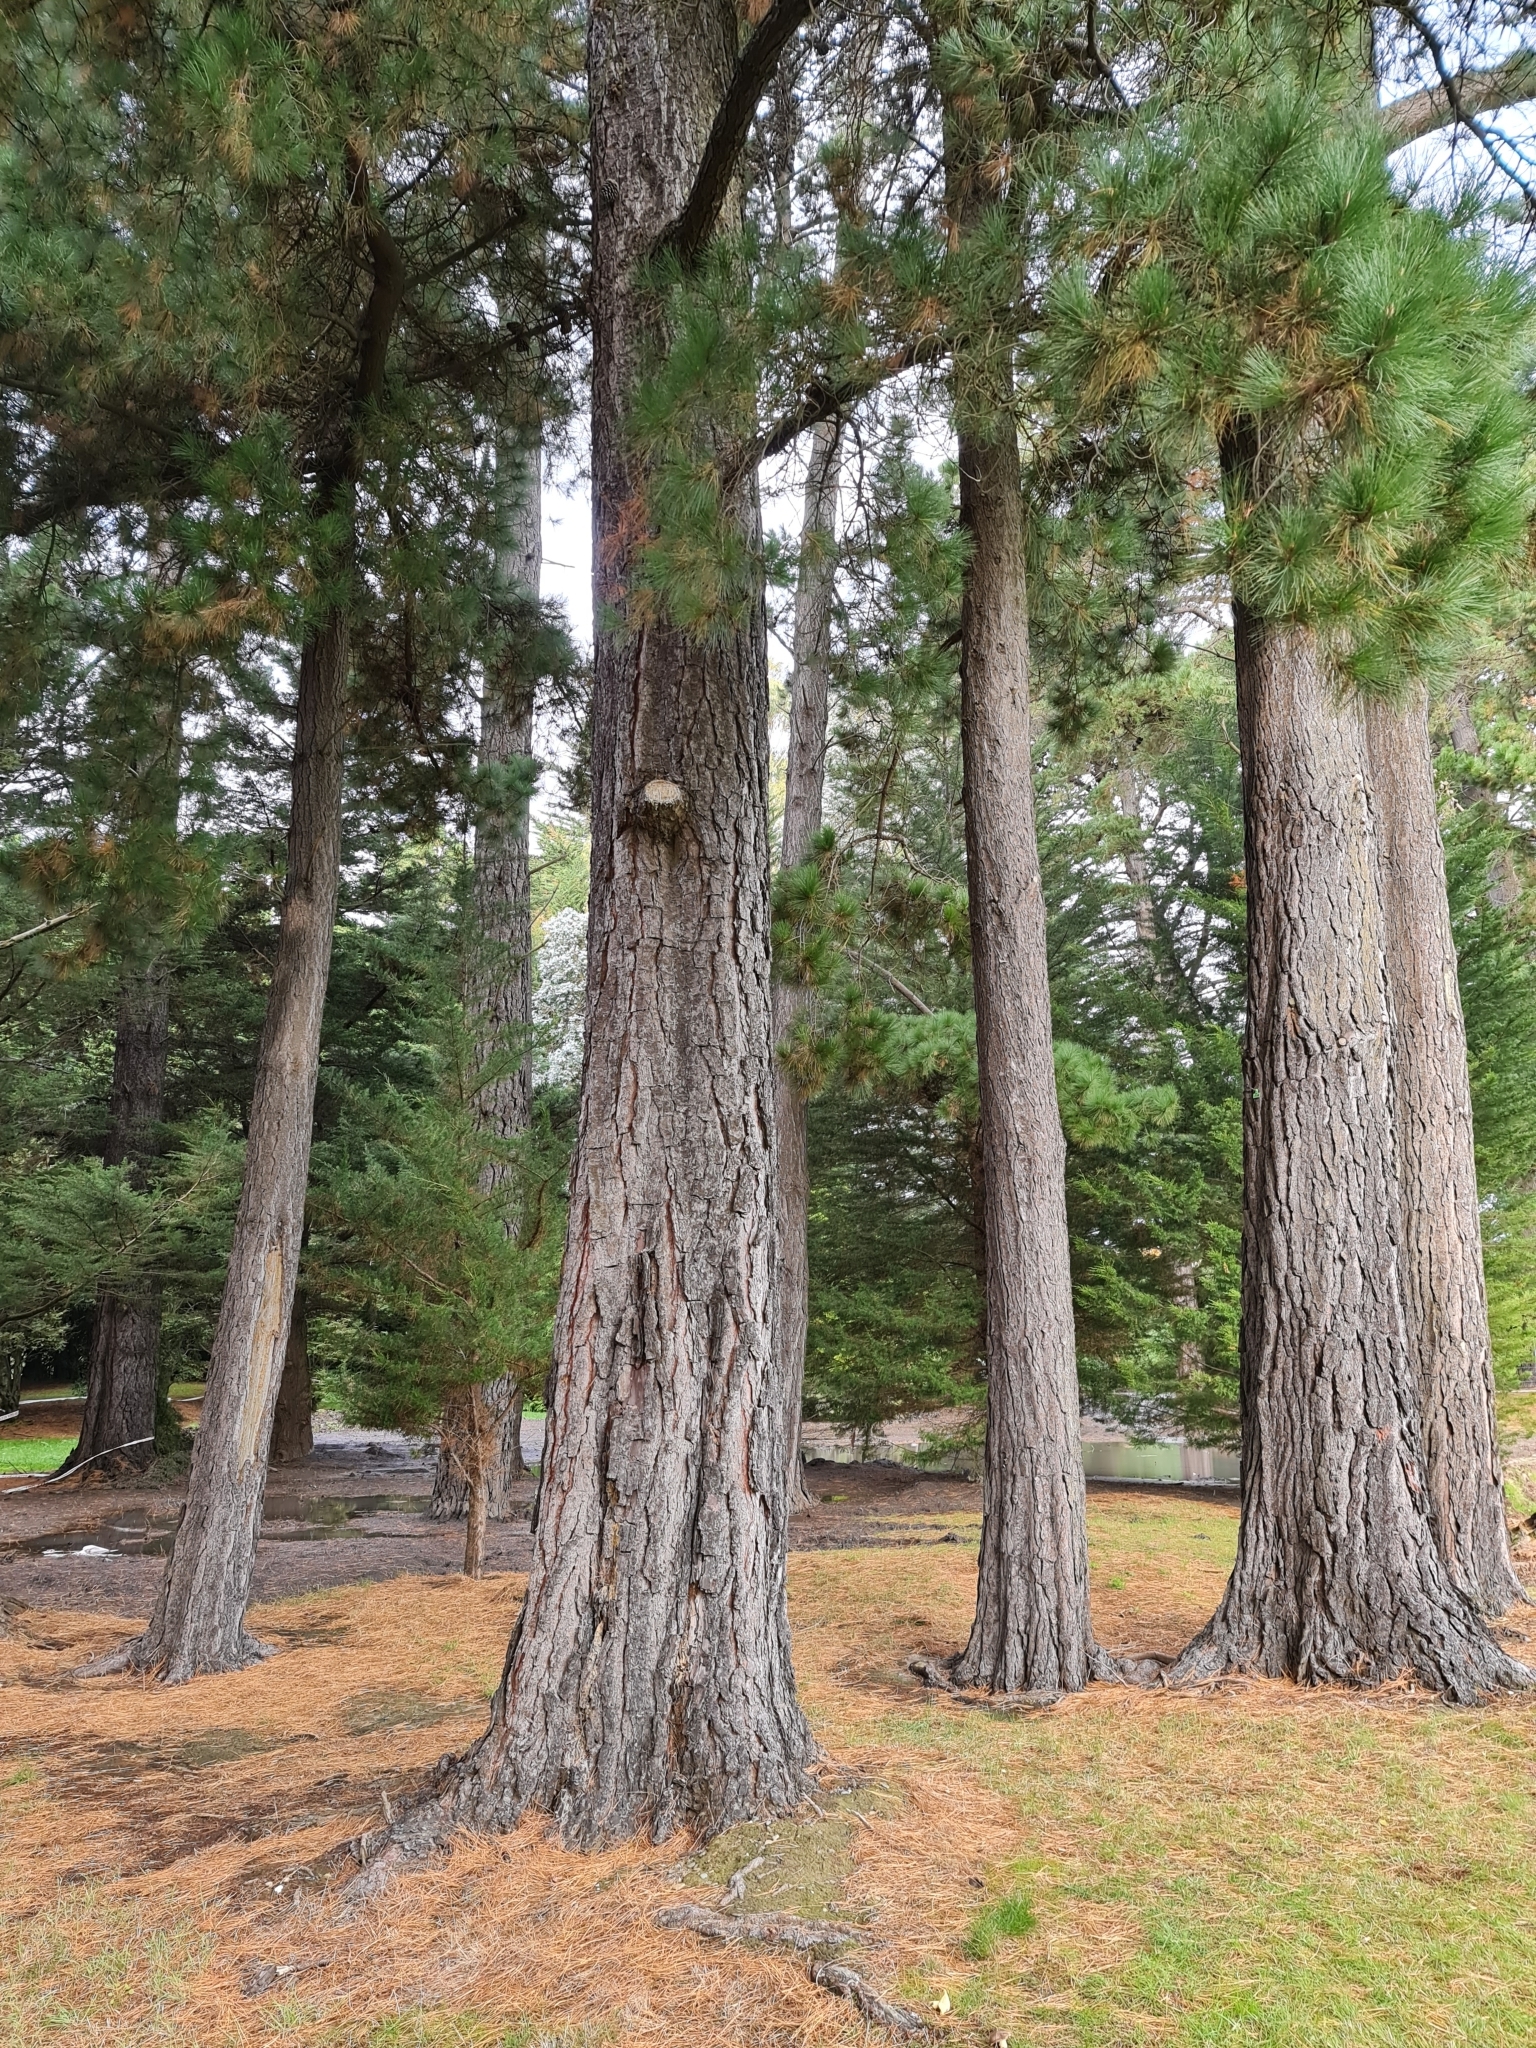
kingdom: Fungi
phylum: Basidiomycota
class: Agaricomycetes
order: Boletales
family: Suillaceae
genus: Suillus
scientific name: Suillus granulatus
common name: Weeping bolete
